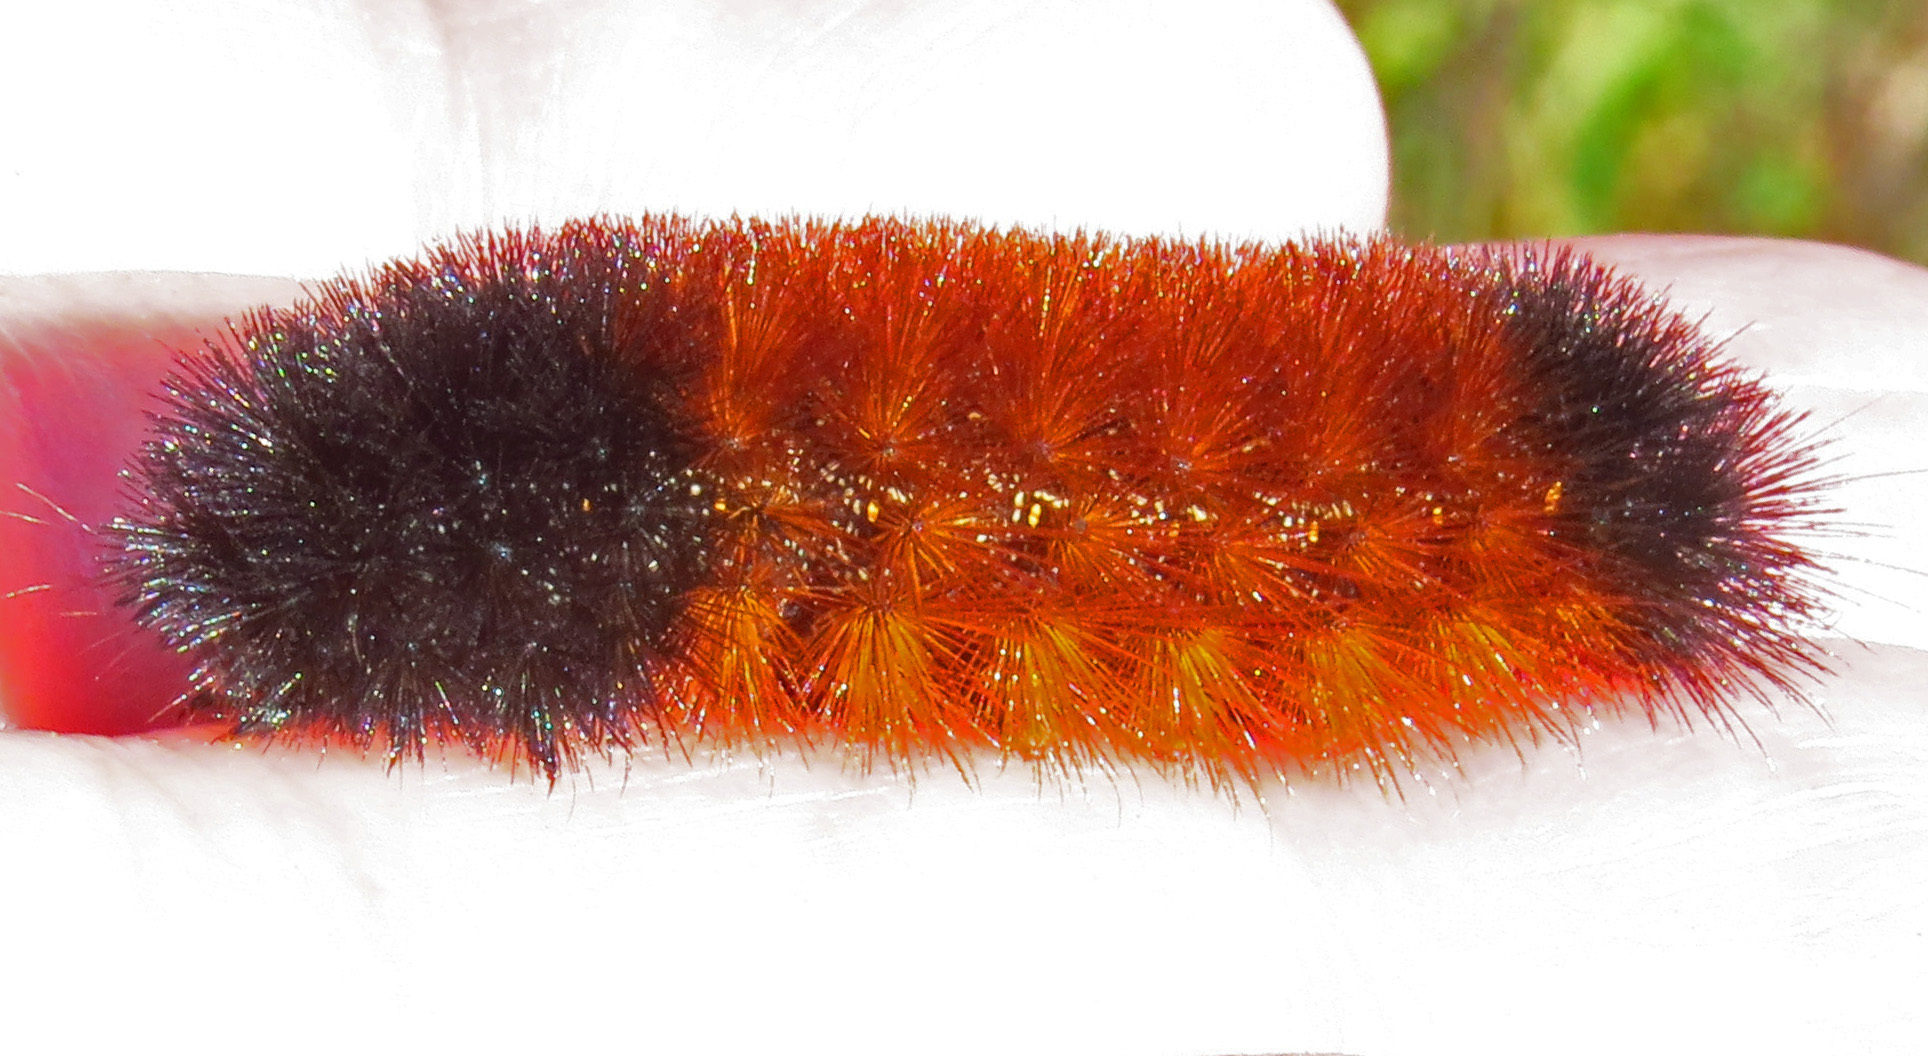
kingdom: Animalia
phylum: Arthropoda
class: Insecta
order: Lepidoptera
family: Erebidae
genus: Pyrrharctia
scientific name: Pyrrharctia isabella
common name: Isabella tiger moth
